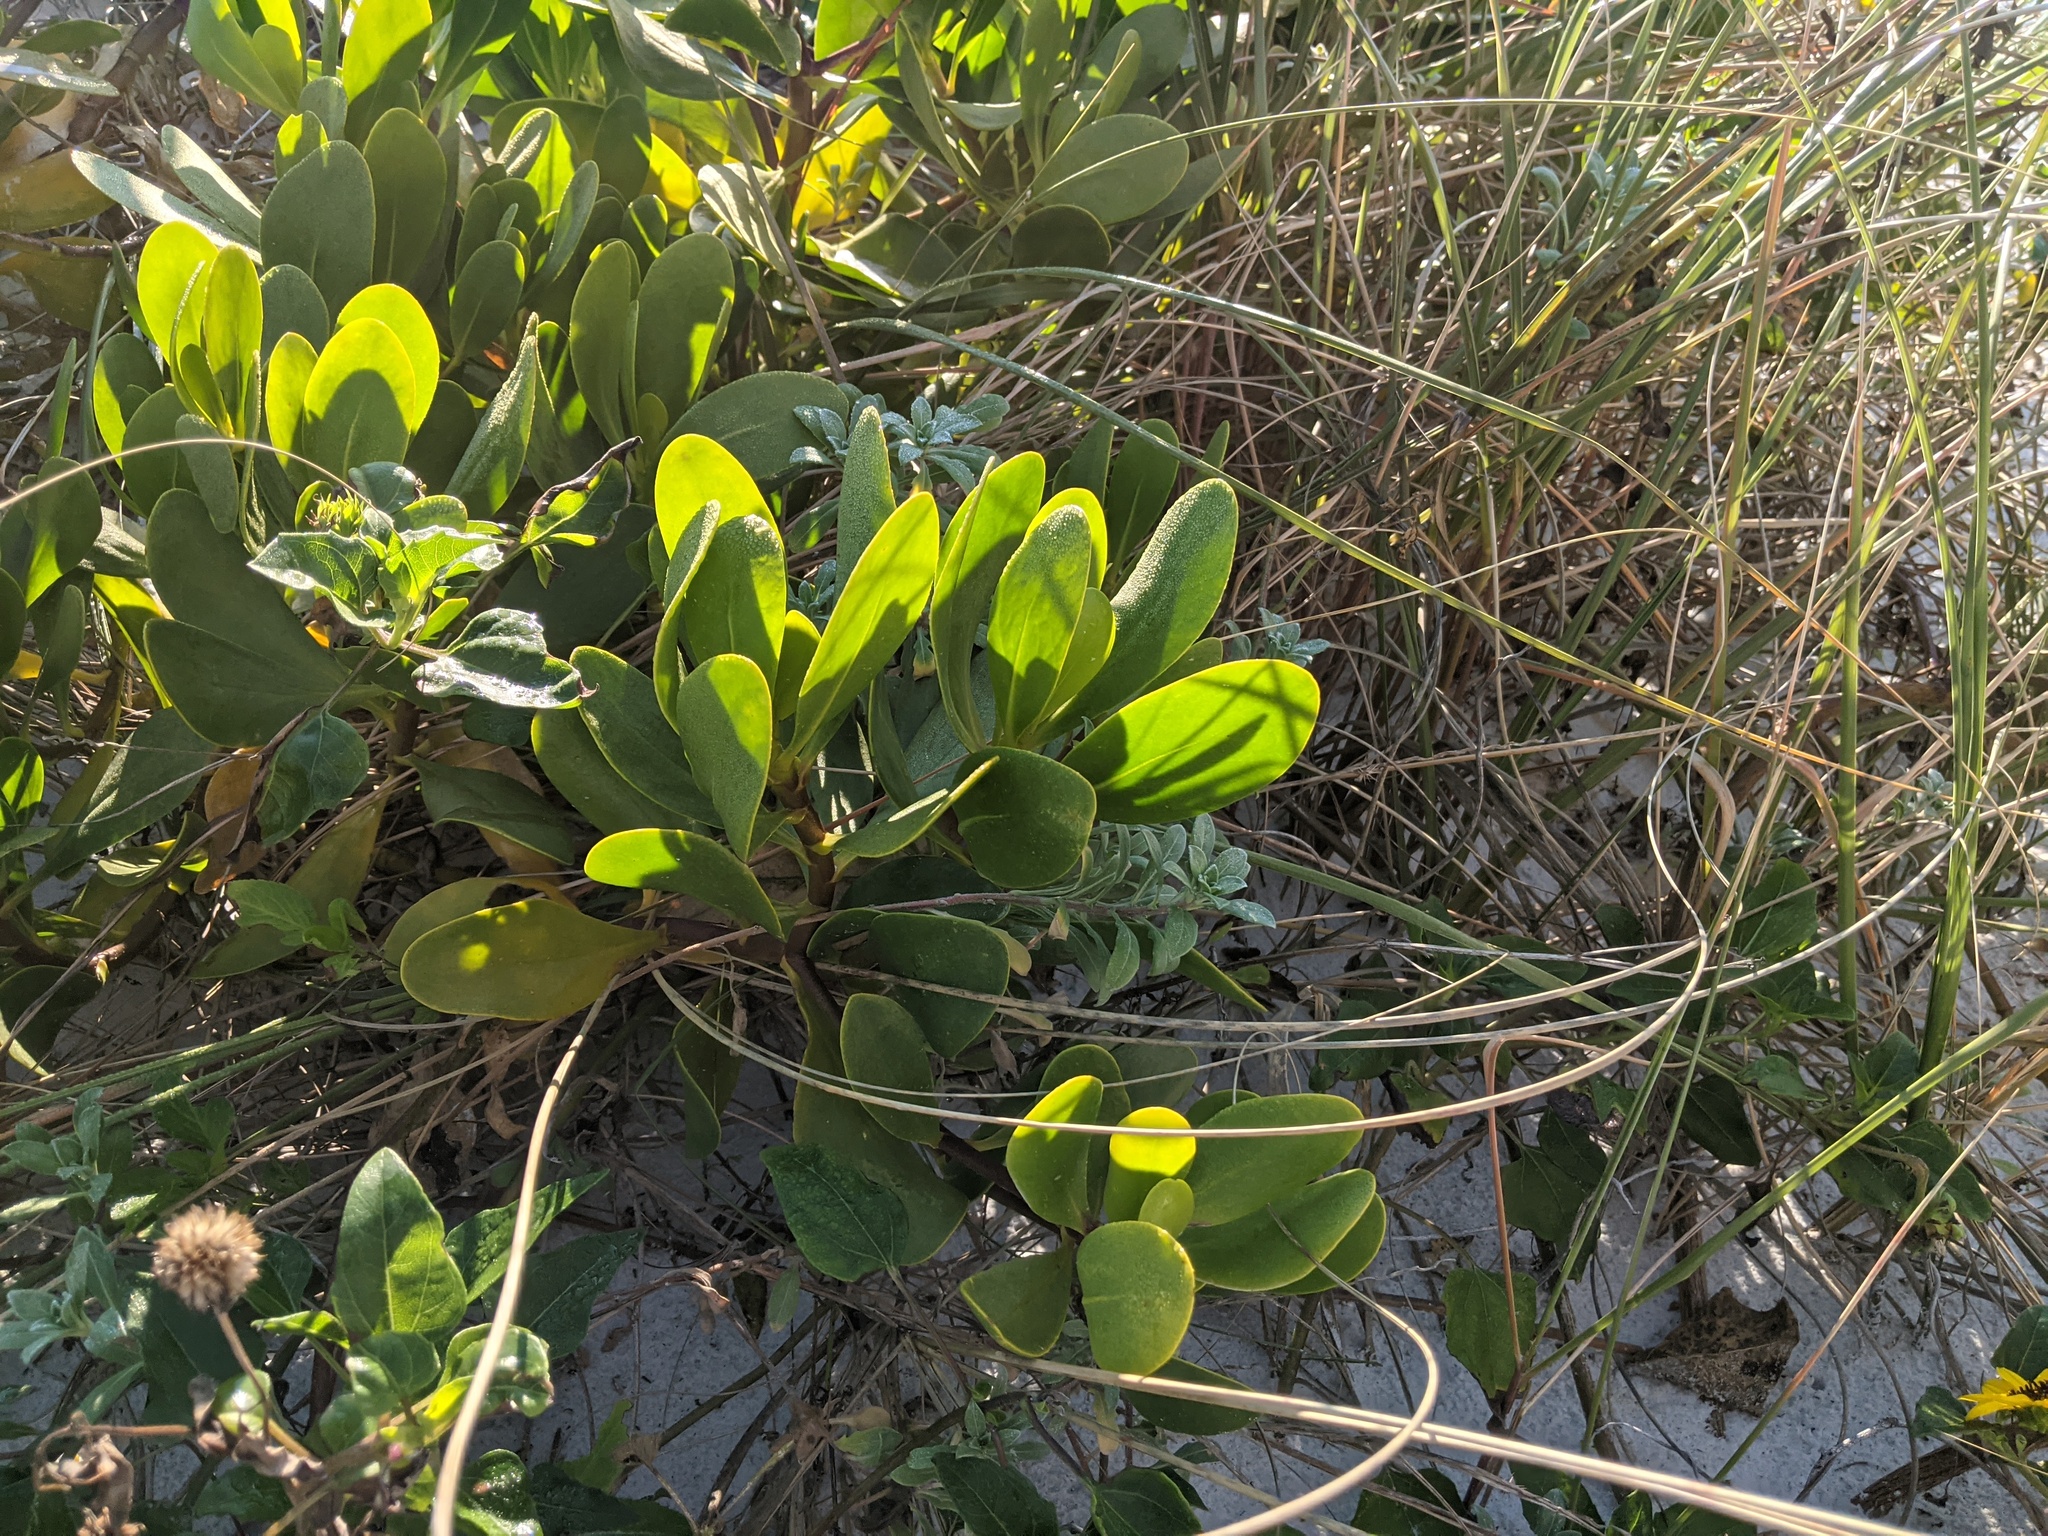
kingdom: Plantae
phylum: Tracheophyta
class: Magnoliopsida
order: Asterales
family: Goodeniaceae
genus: Scaevola
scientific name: Scaevola plumieri
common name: Gull feed
